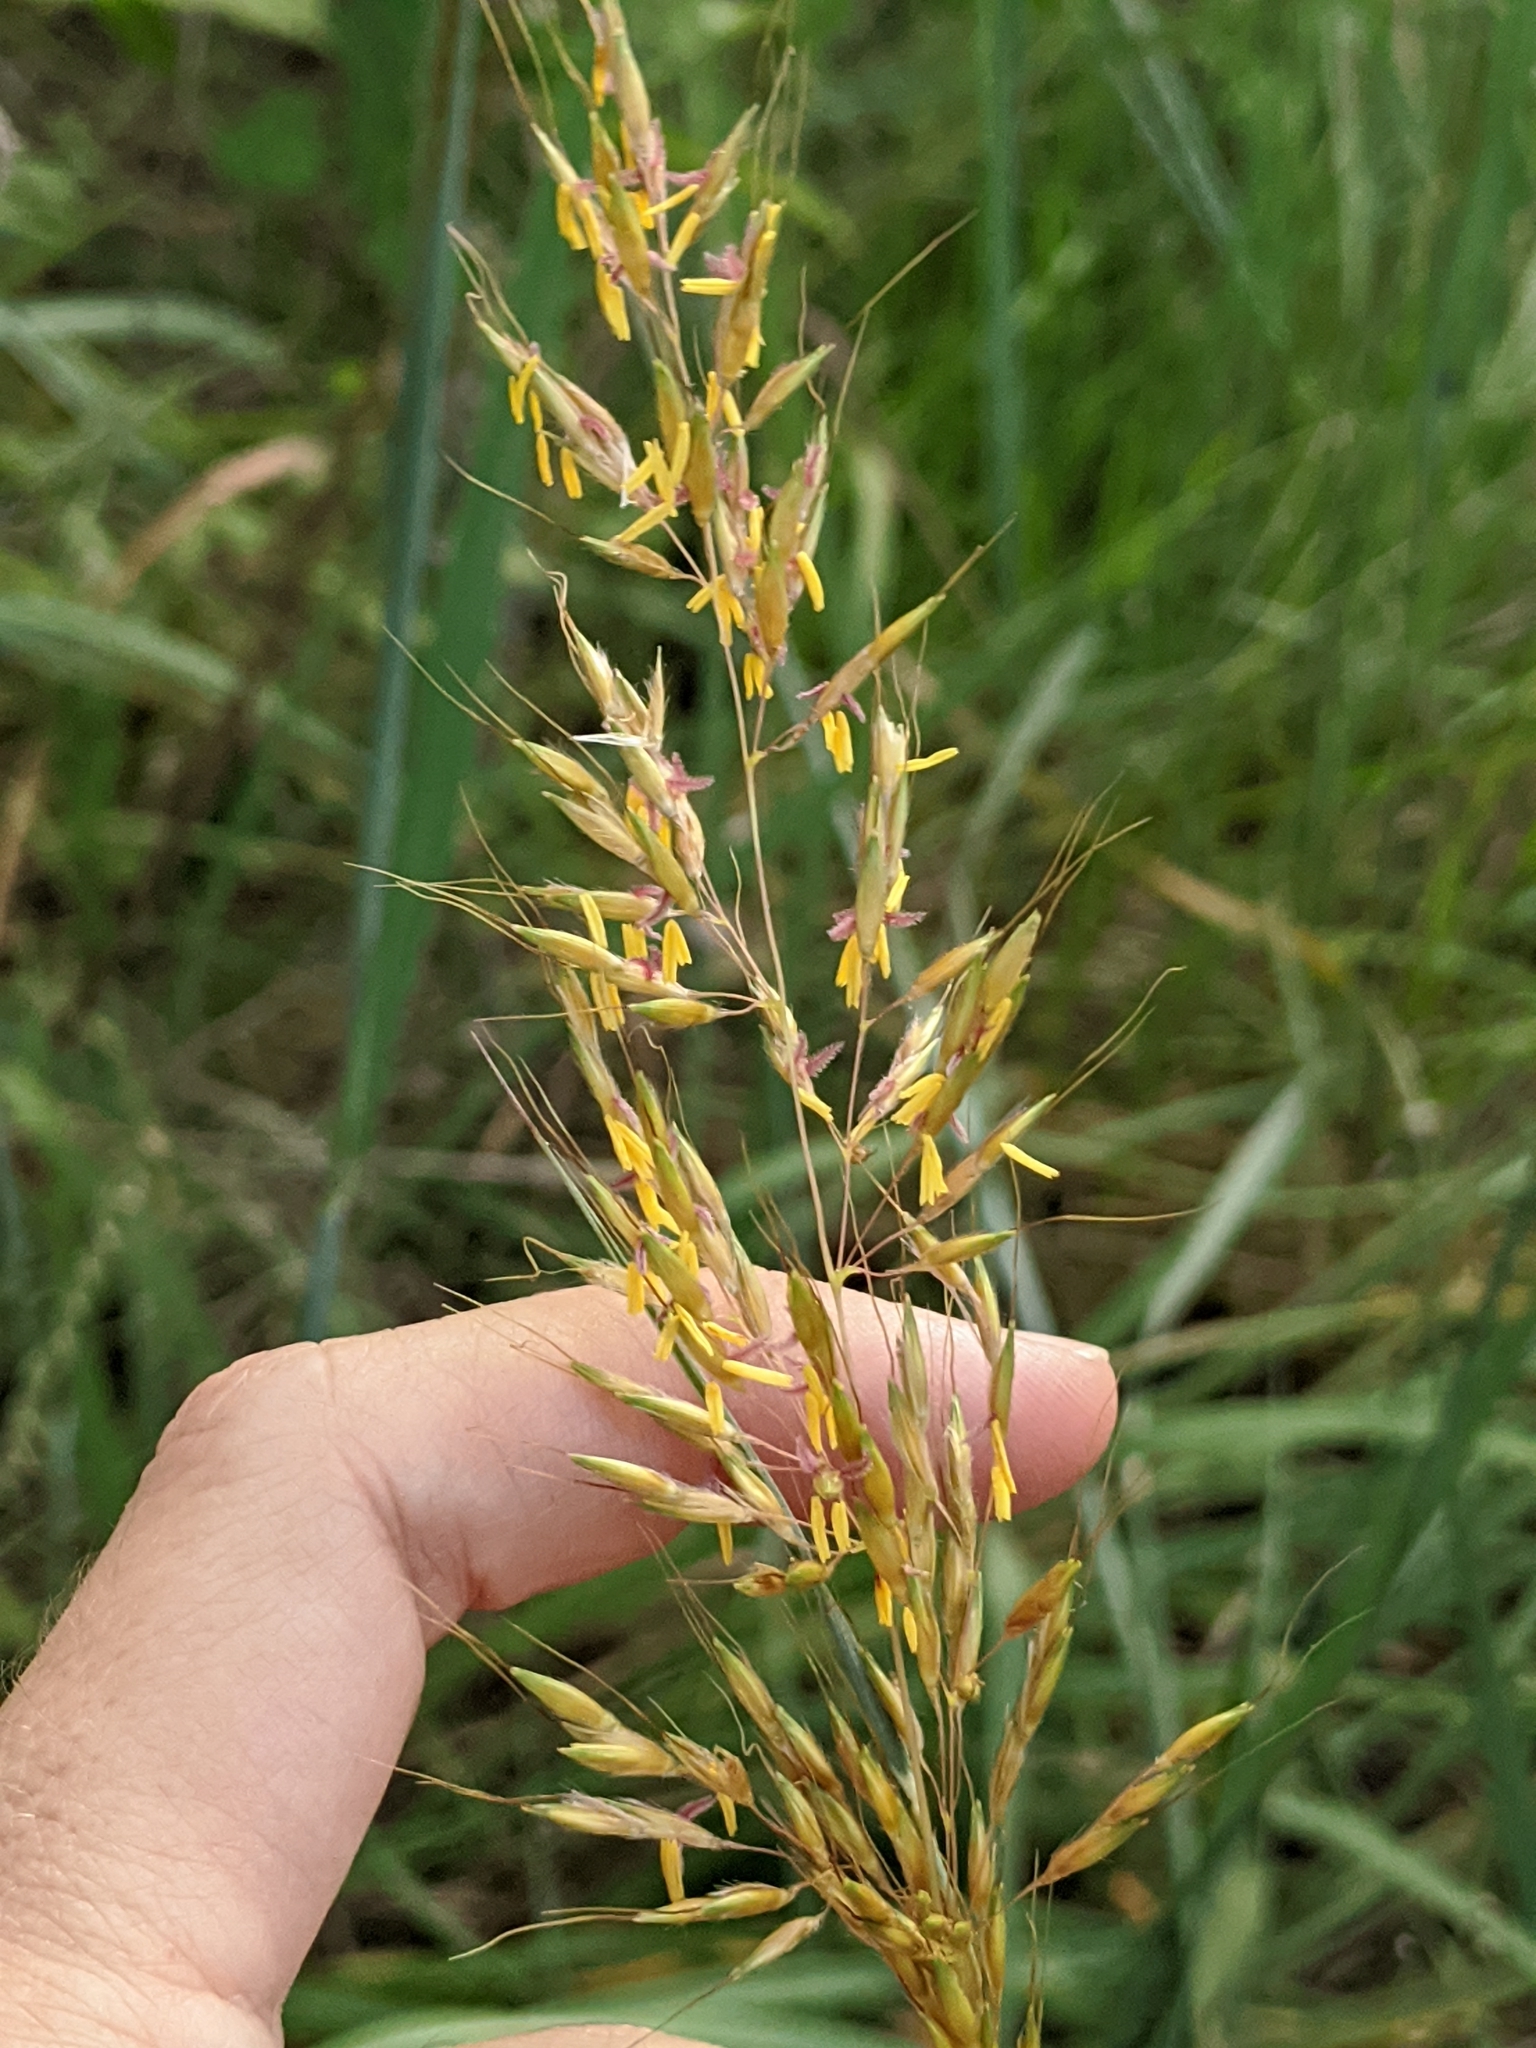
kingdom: Plantae
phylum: Tracheophyta
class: Liliopsida
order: Poales
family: Poaceae
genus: Sorghastrum
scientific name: Sorghastrum nutans
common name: Indian grass
